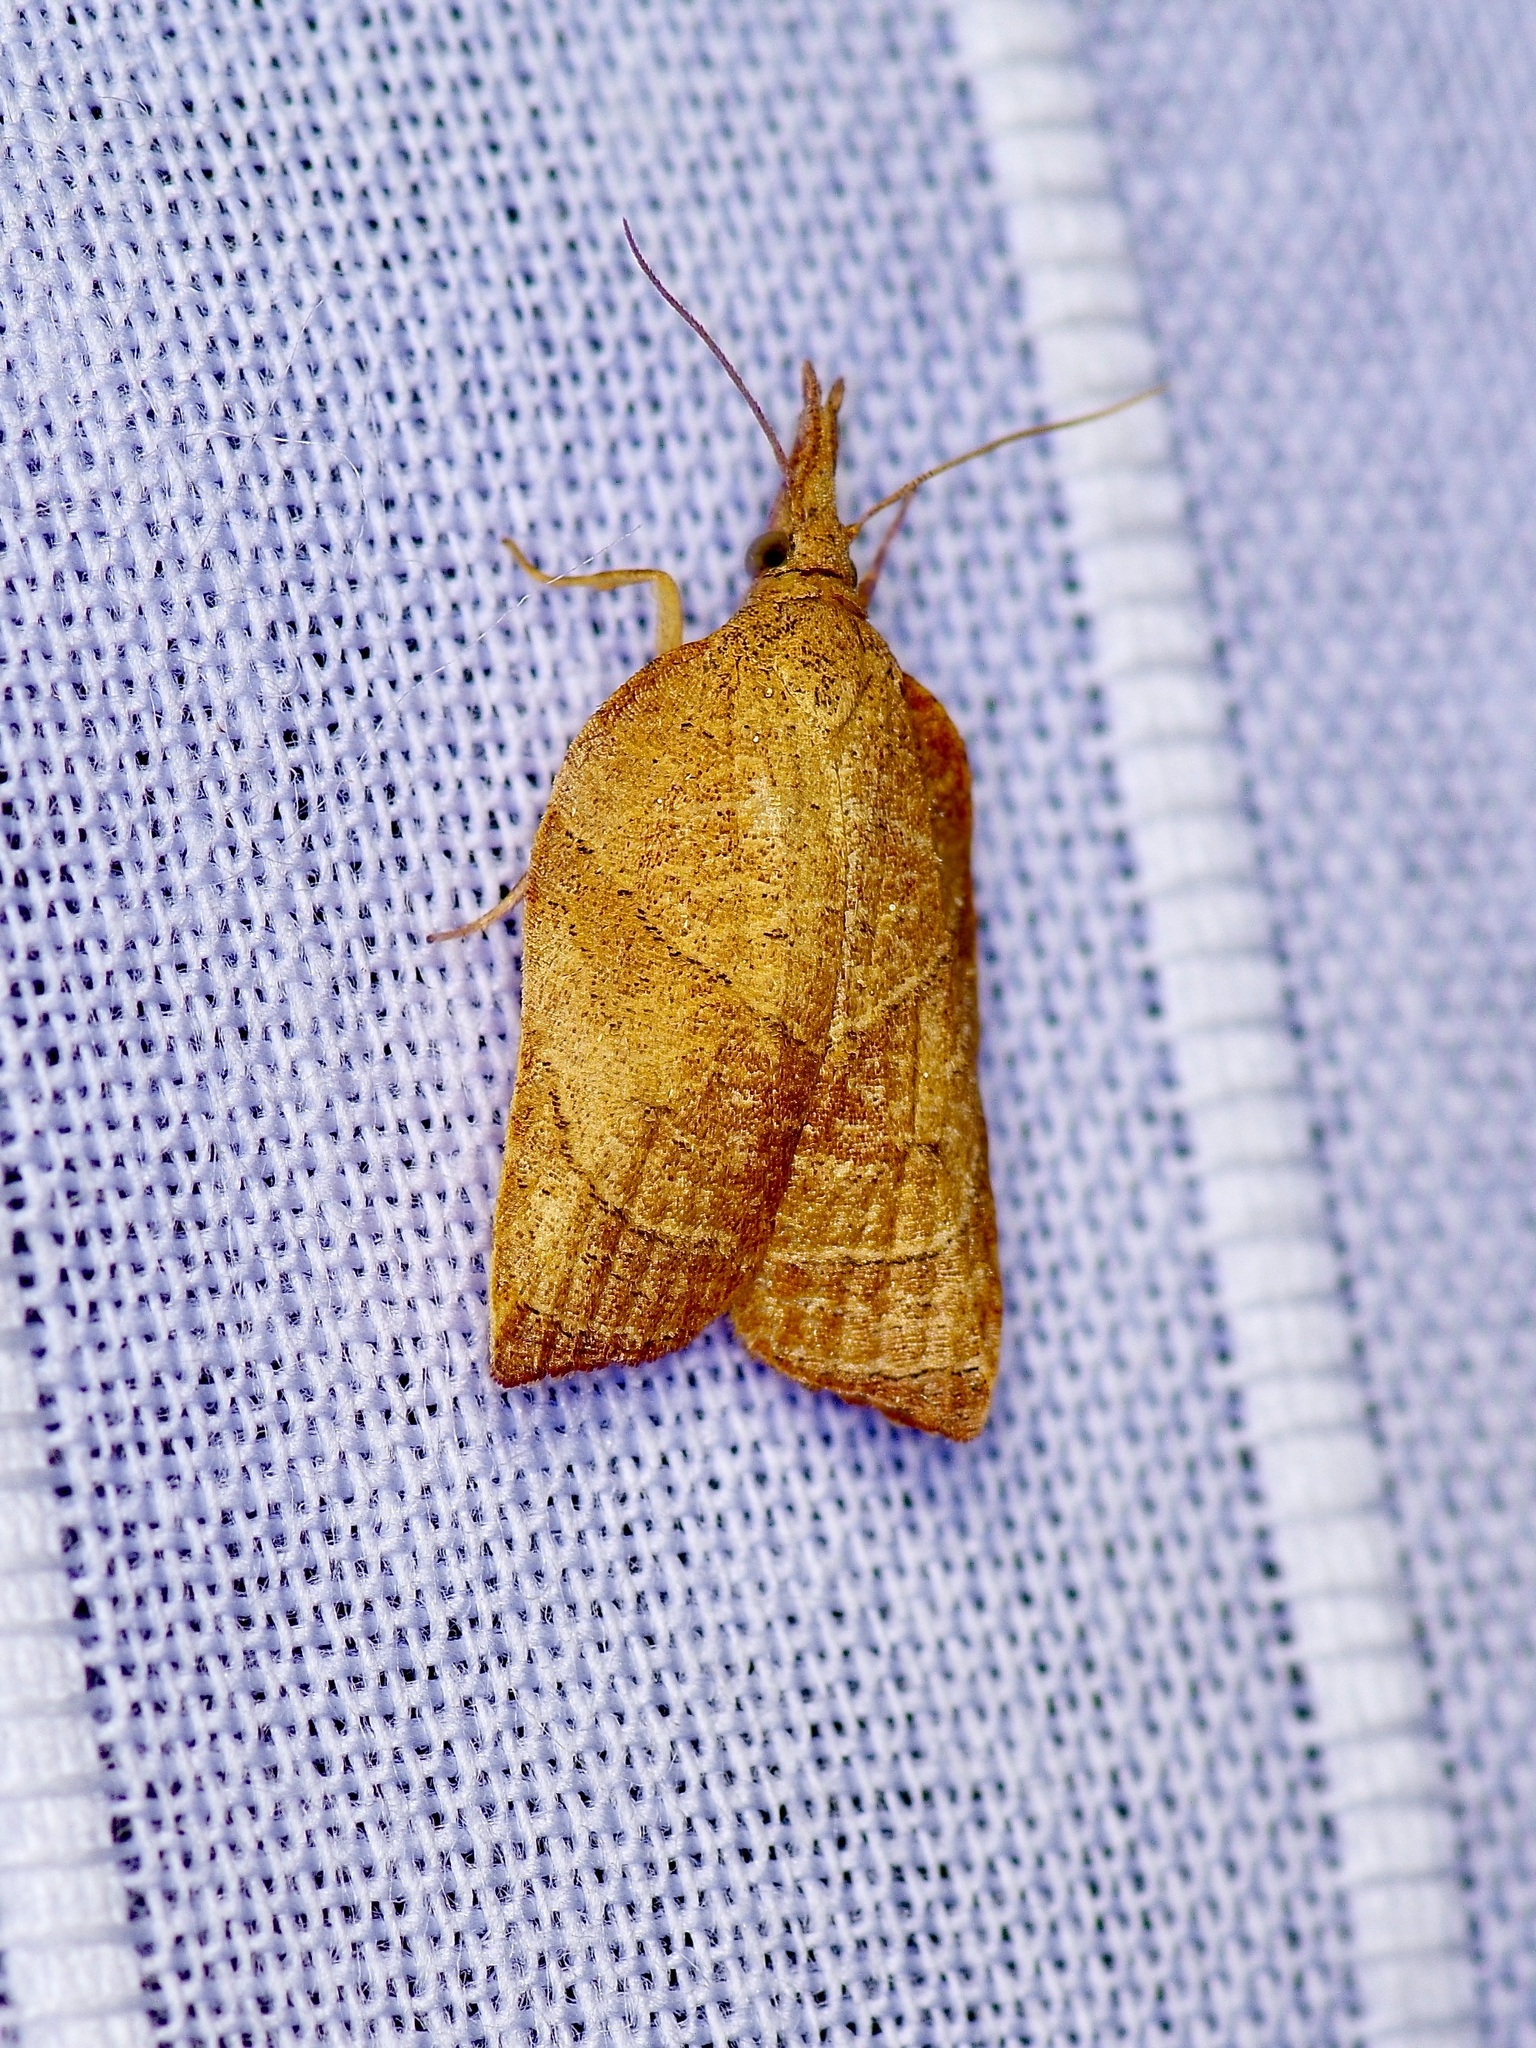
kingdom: Animalia
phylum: Arthropoda
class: Insecta
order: Lepidoptera
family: Tortricidae
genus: Platynota
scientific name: Platynota rostrana
